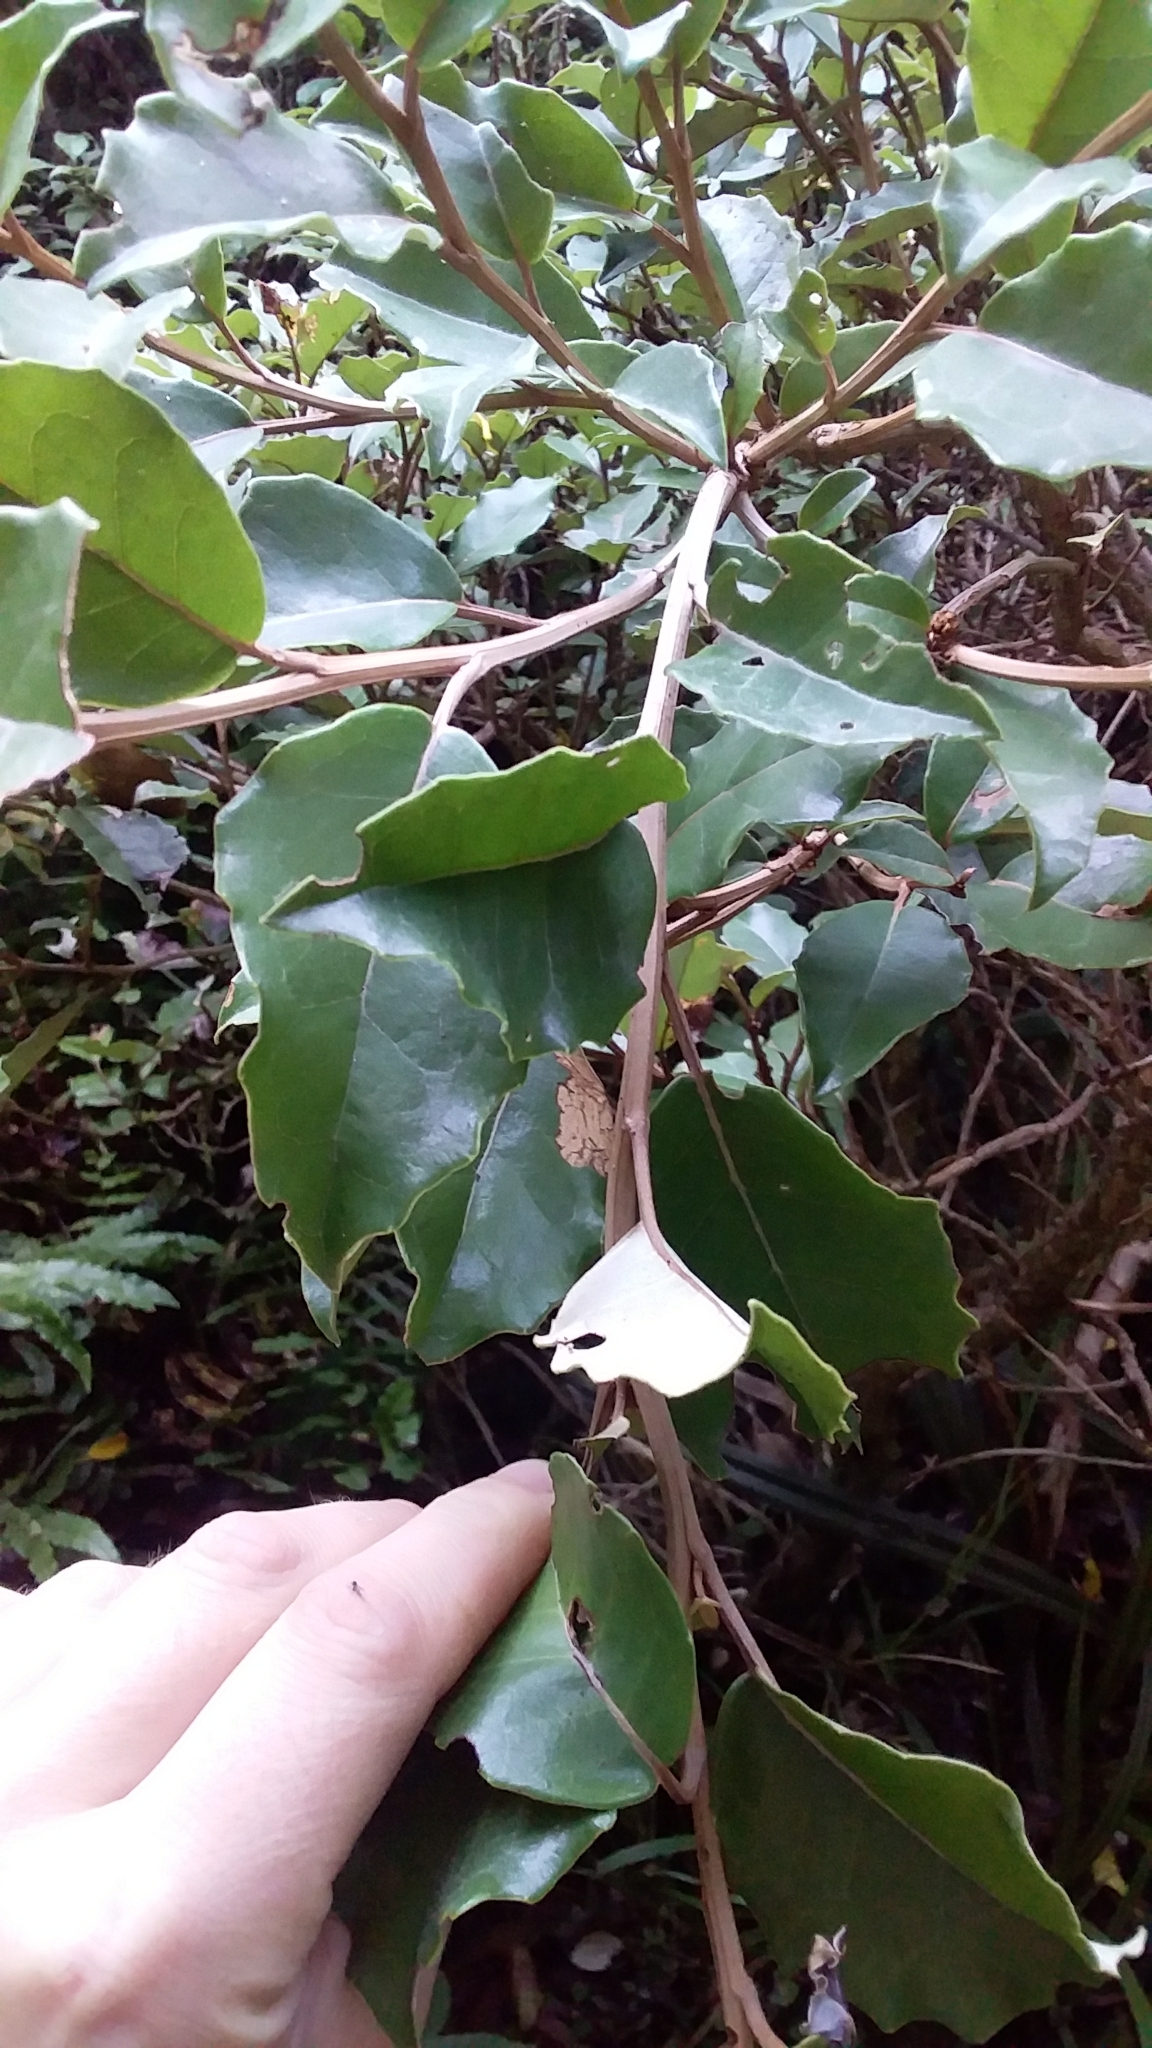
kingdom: Plantae
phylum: Tracheophyta
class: Magnoliopsida
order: Asterales
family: Asteraceae
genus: Olearia
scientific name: Olearia arborescens
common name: Glossy tree daisy
